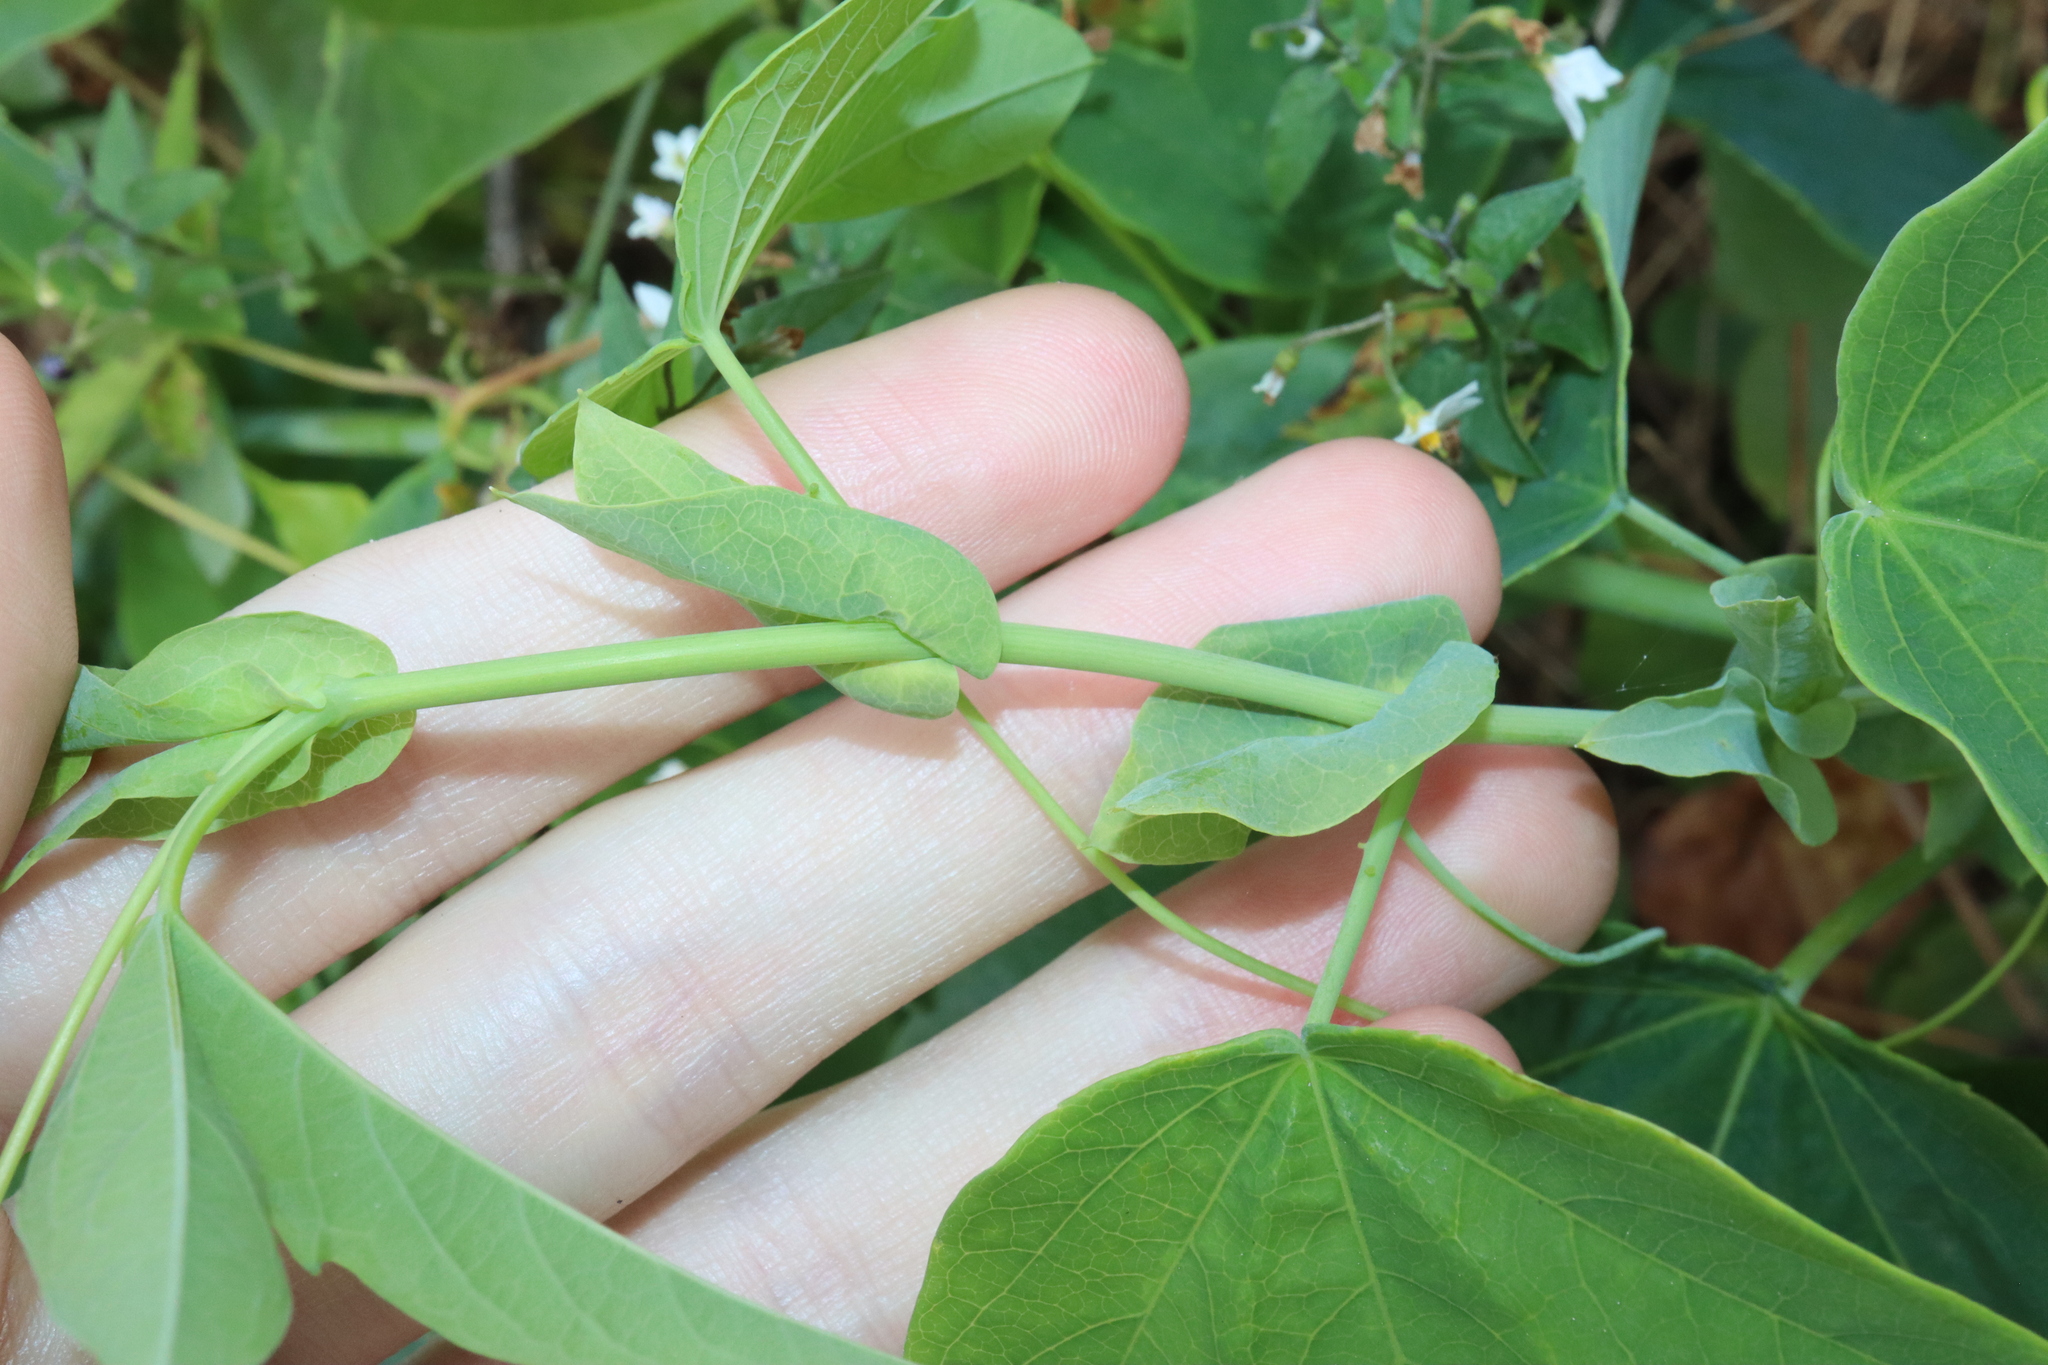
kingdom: Plantae
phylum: Tracheophyta
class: Magnoliopsida
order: Malpighiales
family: Passifloraceae
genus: Passiflora
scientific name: Passiflora subpeltata
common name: White passionflower
